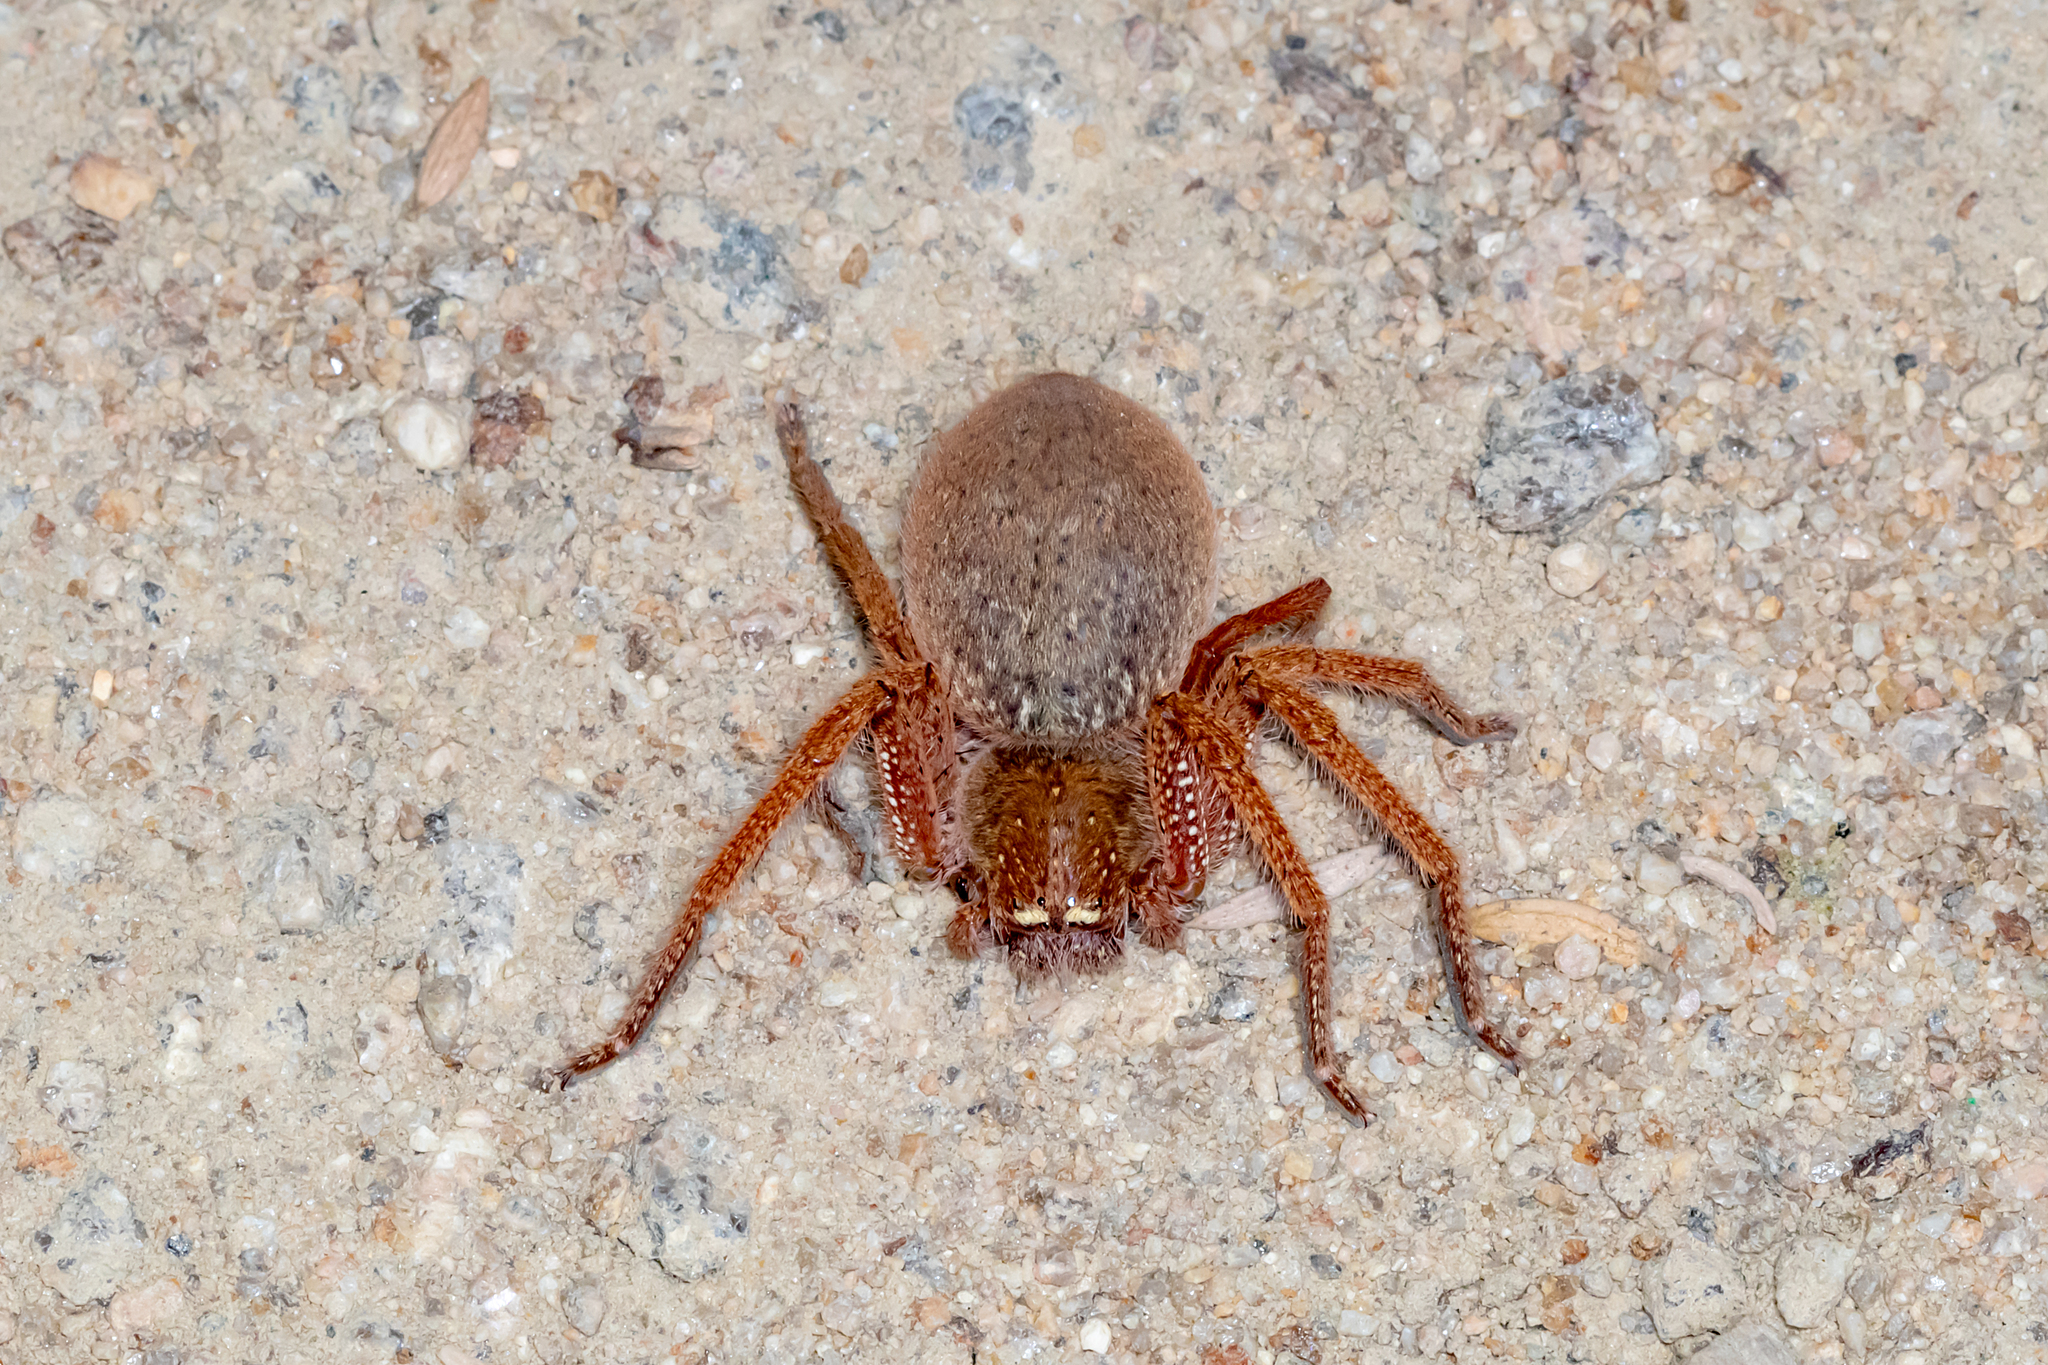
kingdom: Animalia
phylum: Arthropoda
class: Arachnida
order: Araneae
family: Sparassidae
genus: Neosparassus
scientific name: Neosparassus diana
